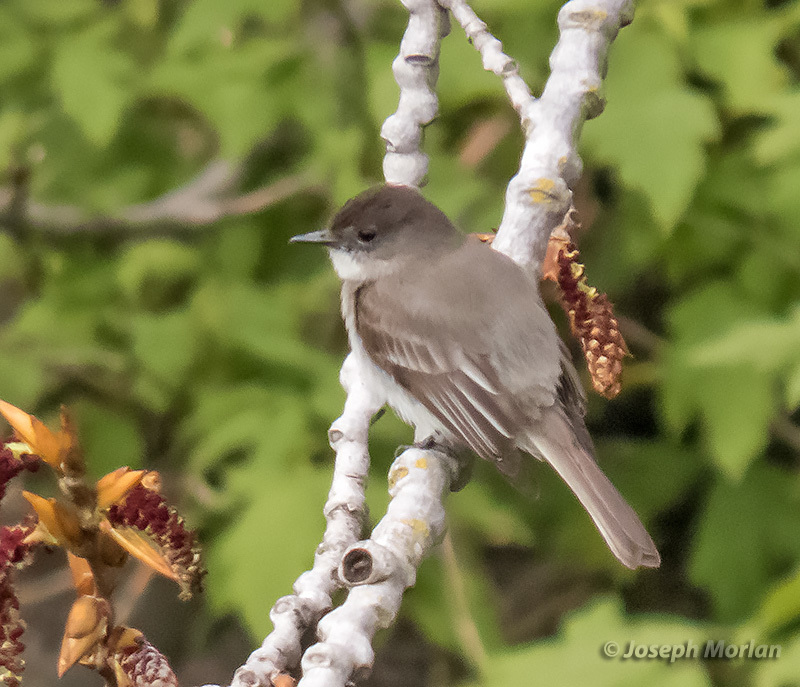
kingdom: Animalia
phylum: Chordata
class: Aves
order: Passeriformes
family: Tyrannidae
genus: Sayornis
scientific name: Sayornis phoebe
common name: Eastern phoebe
